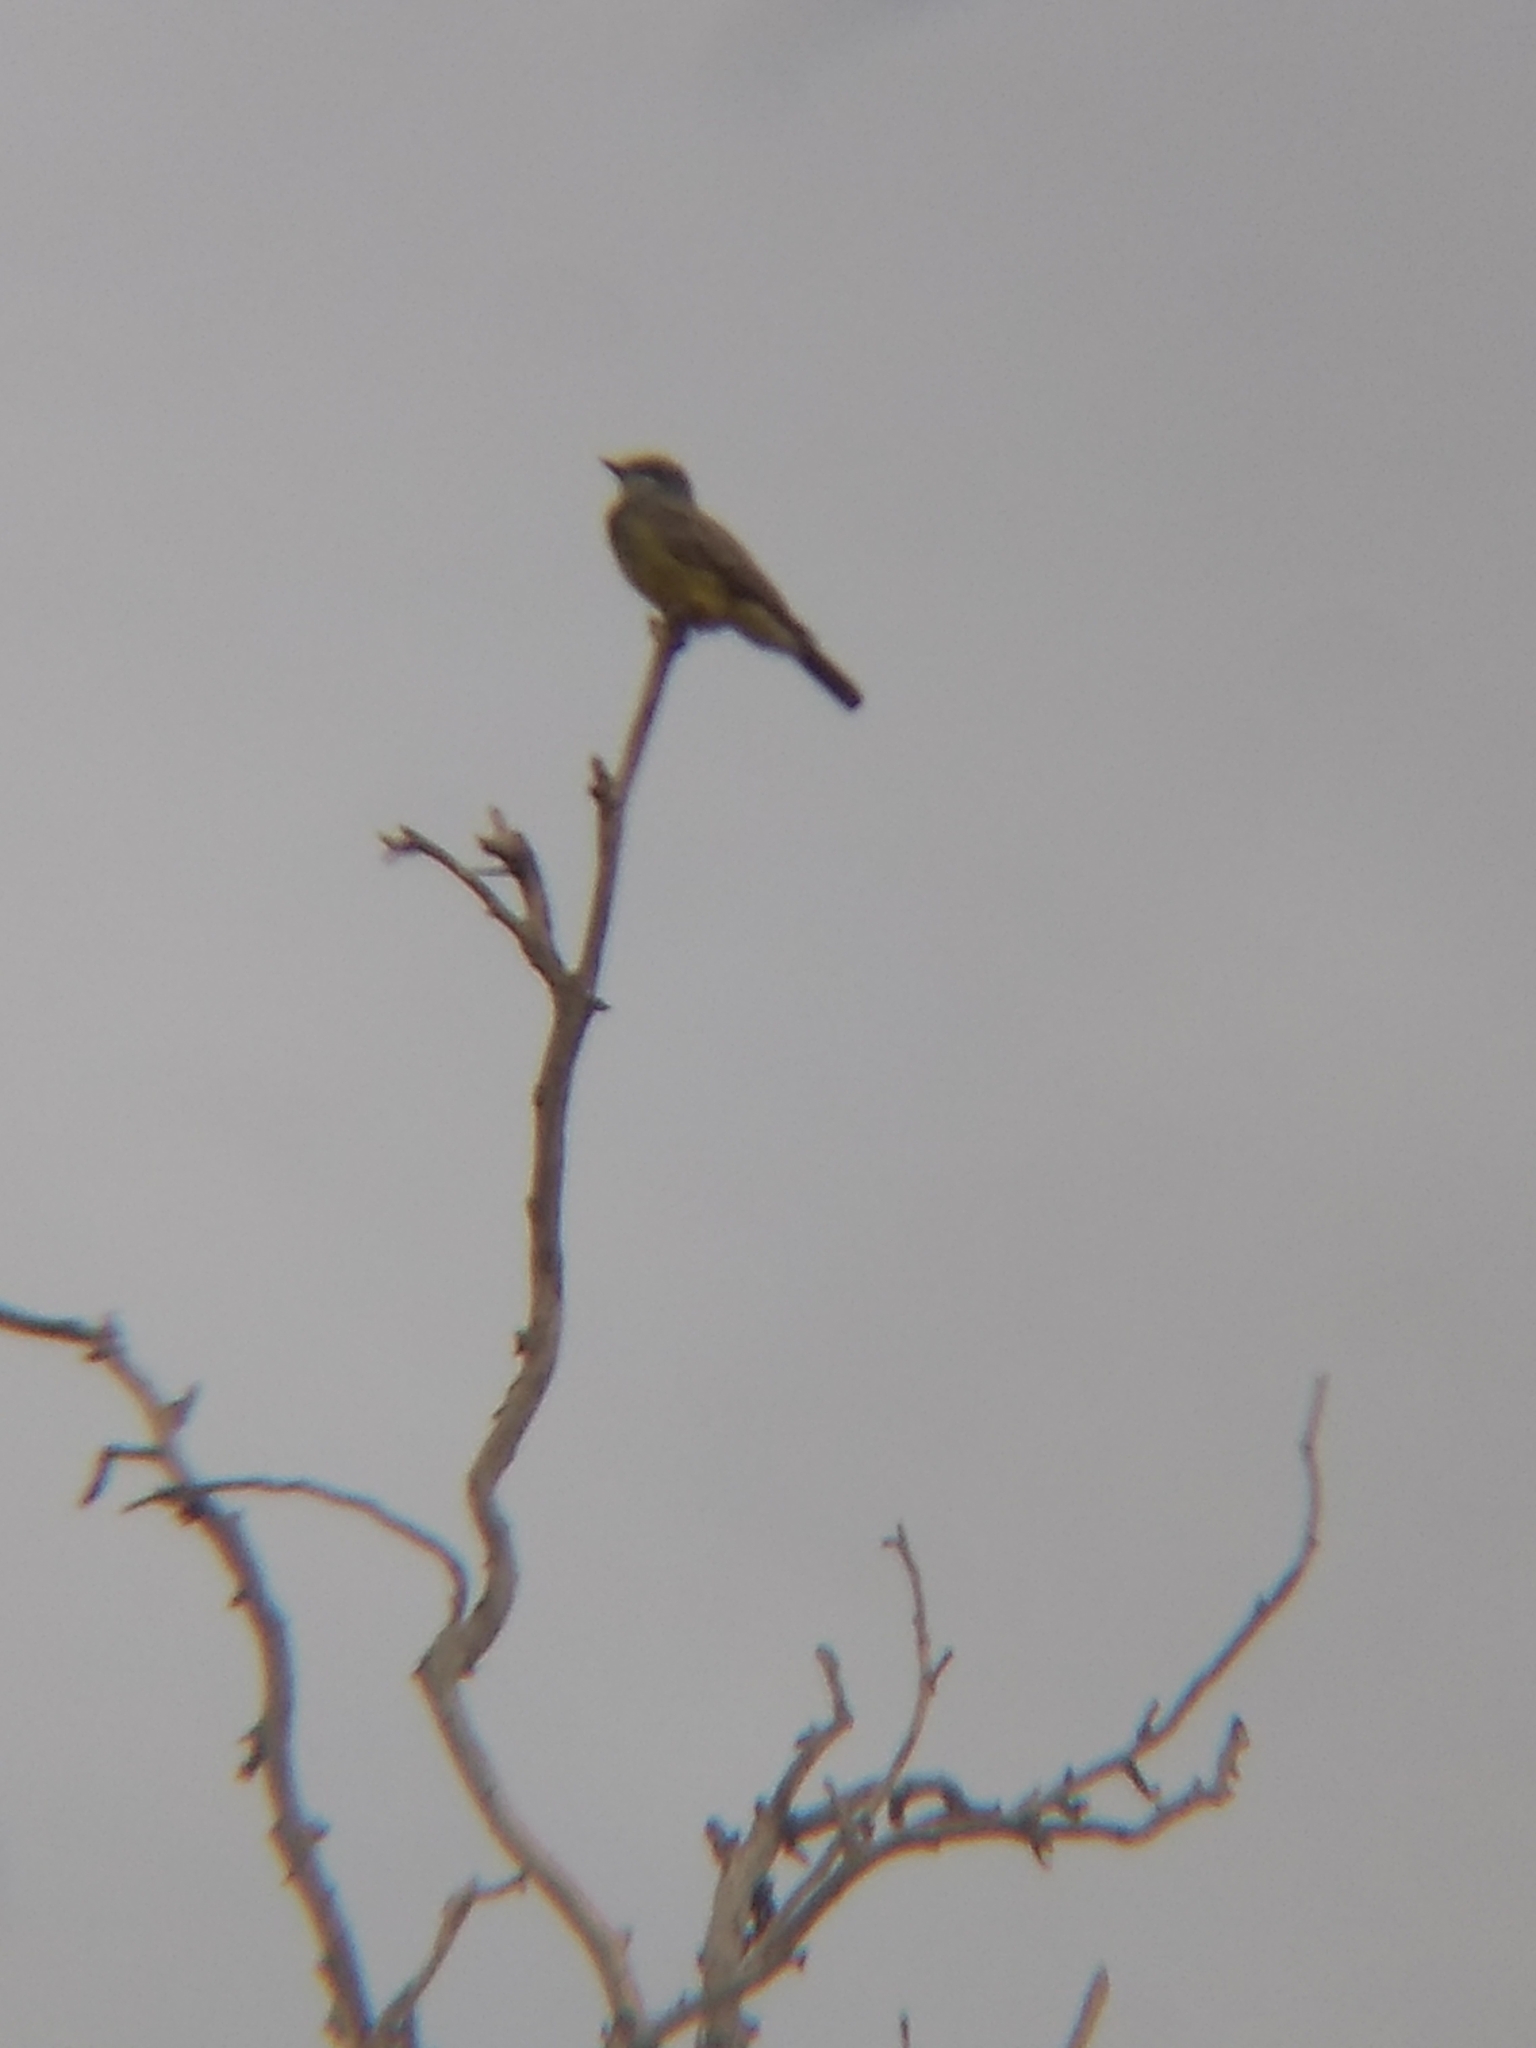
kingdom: Animalia
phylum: Chordata
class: Aves
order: Passeriformes
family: Tyrannidae
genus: Tyrannus
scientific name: Tyrannus vociferans
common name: Cassin's kingbird
